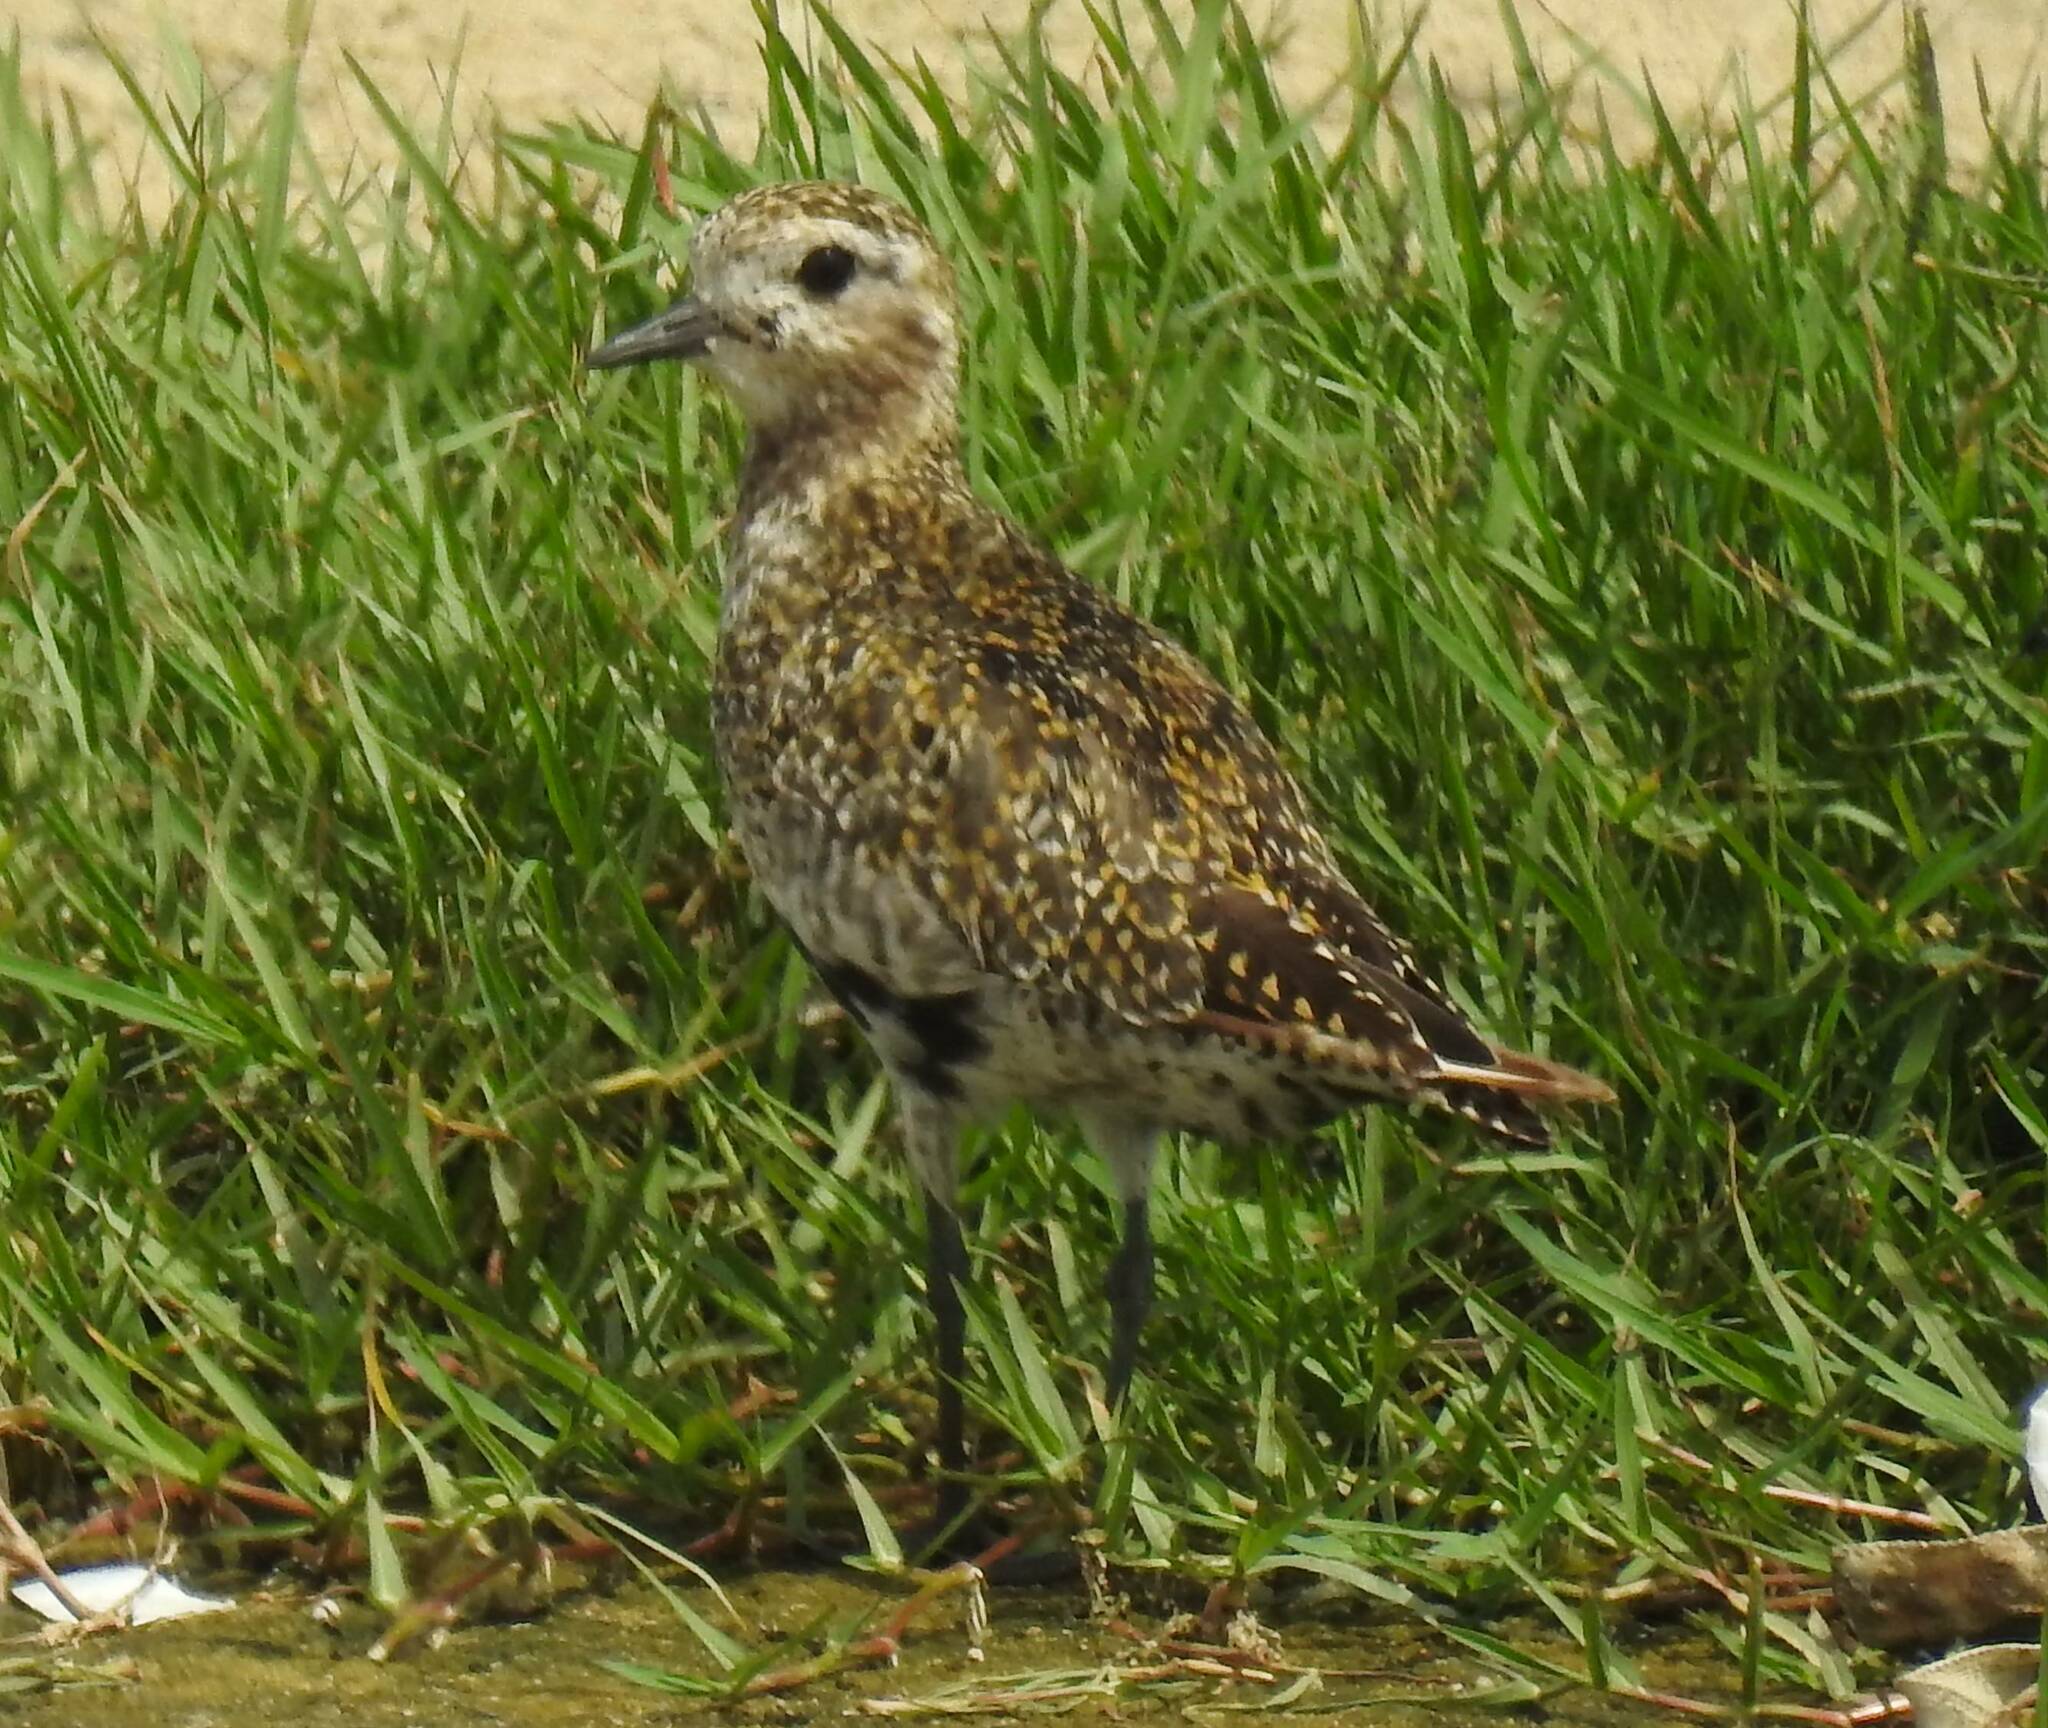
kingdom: Animalia
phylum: Chordata
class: Aves
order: Charadriiformes
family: Charadriidae
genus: Pluvialis
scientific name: Pluvialis apricaria
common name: European golden plover
